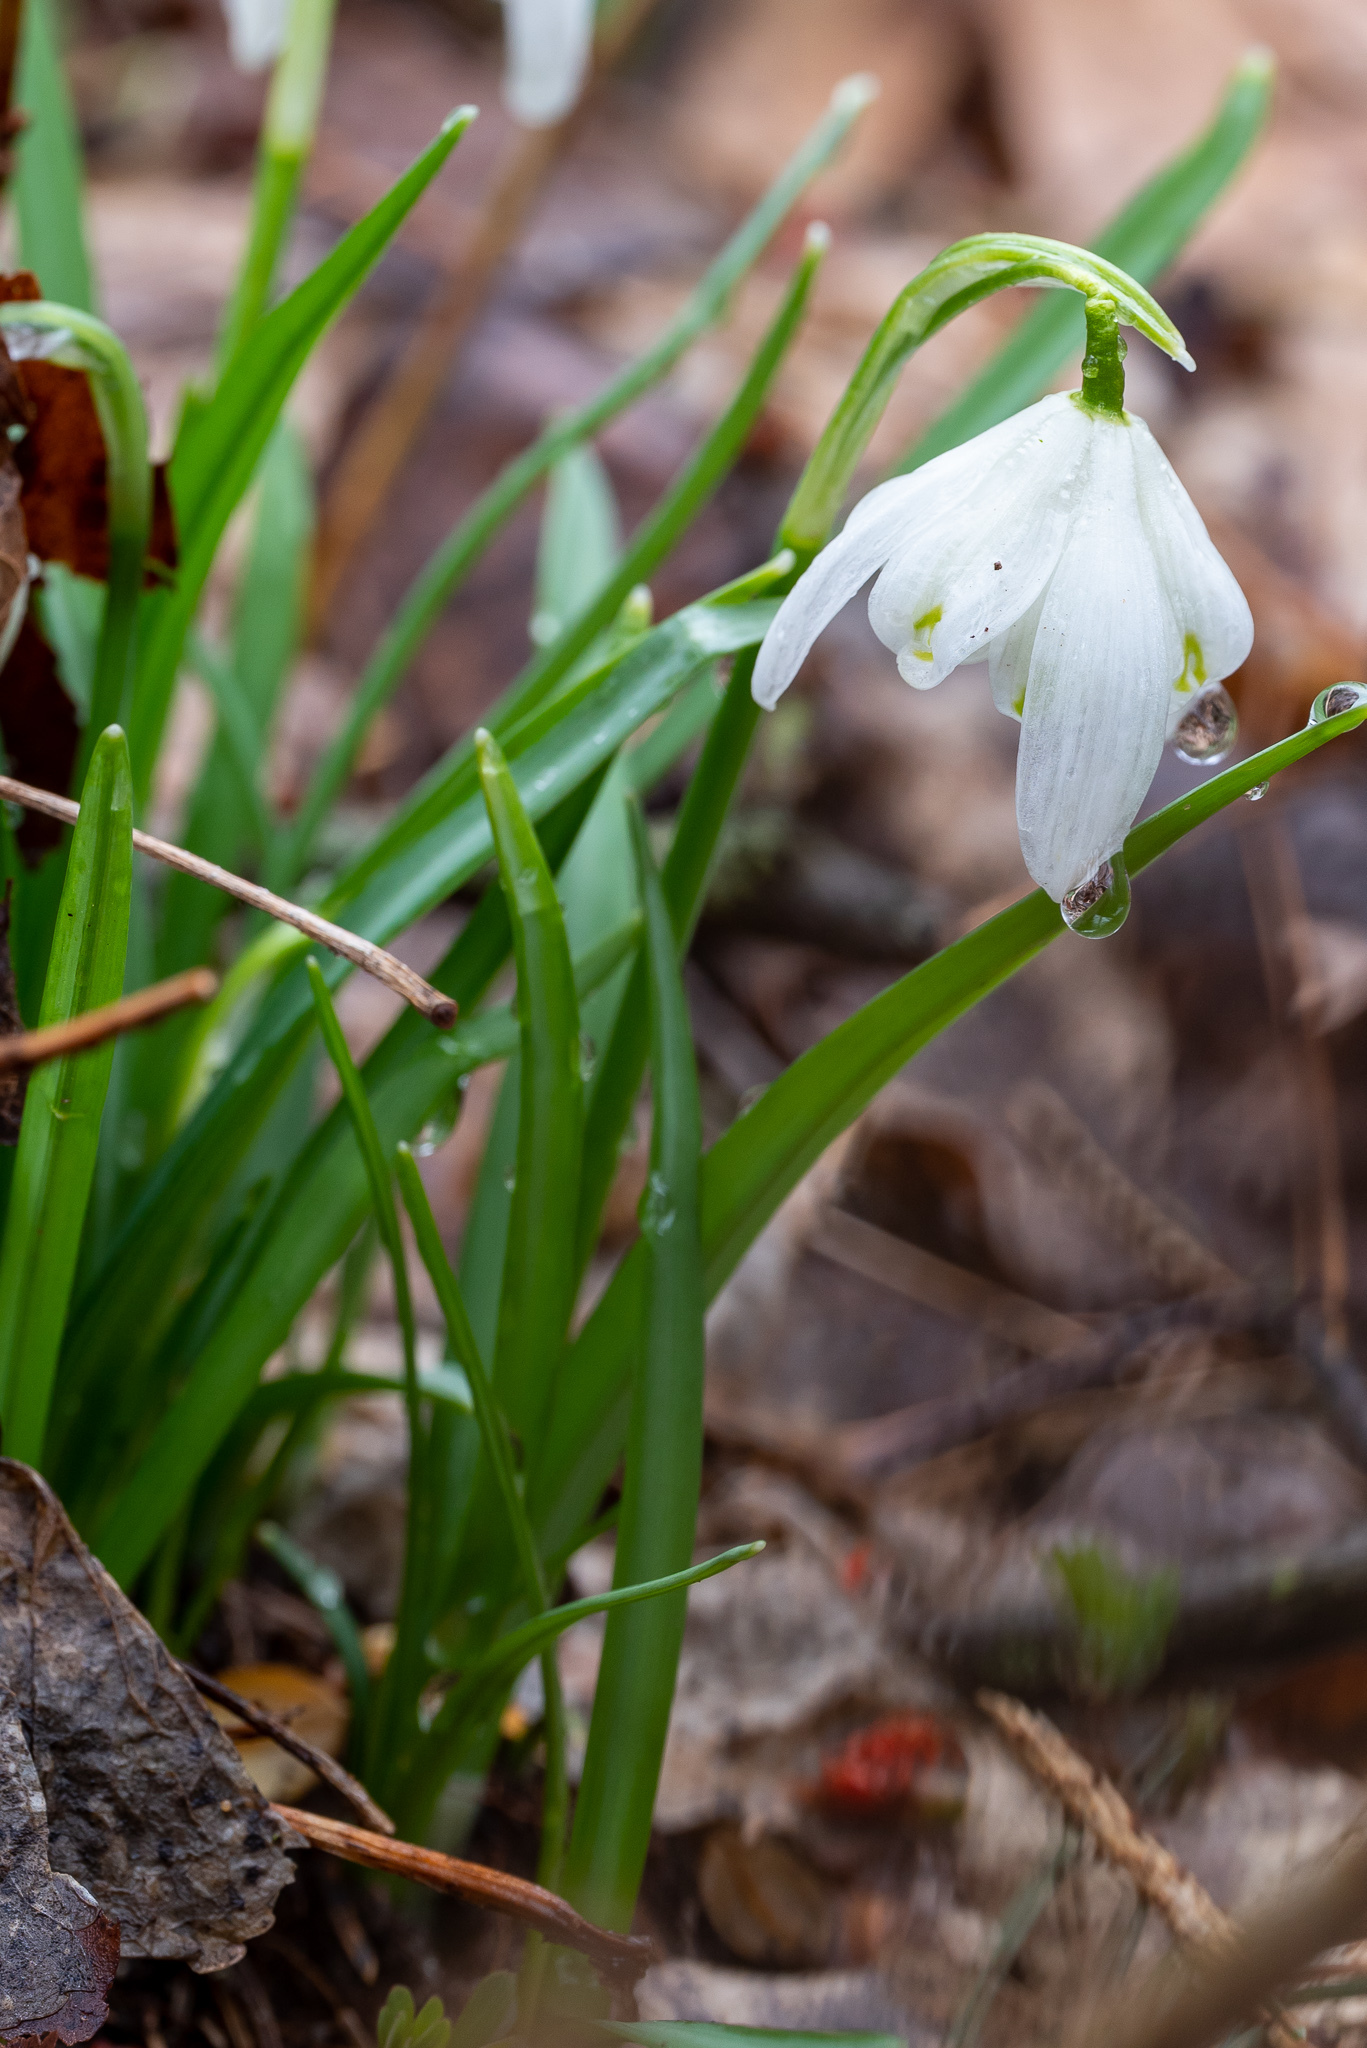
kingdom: Plantae
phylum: Tracheophyta
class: Liliopsida
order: Asparagales
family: Amaryllidaceae
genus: Galanthus
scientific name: Galanthus nivalis
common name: Snowdrop
